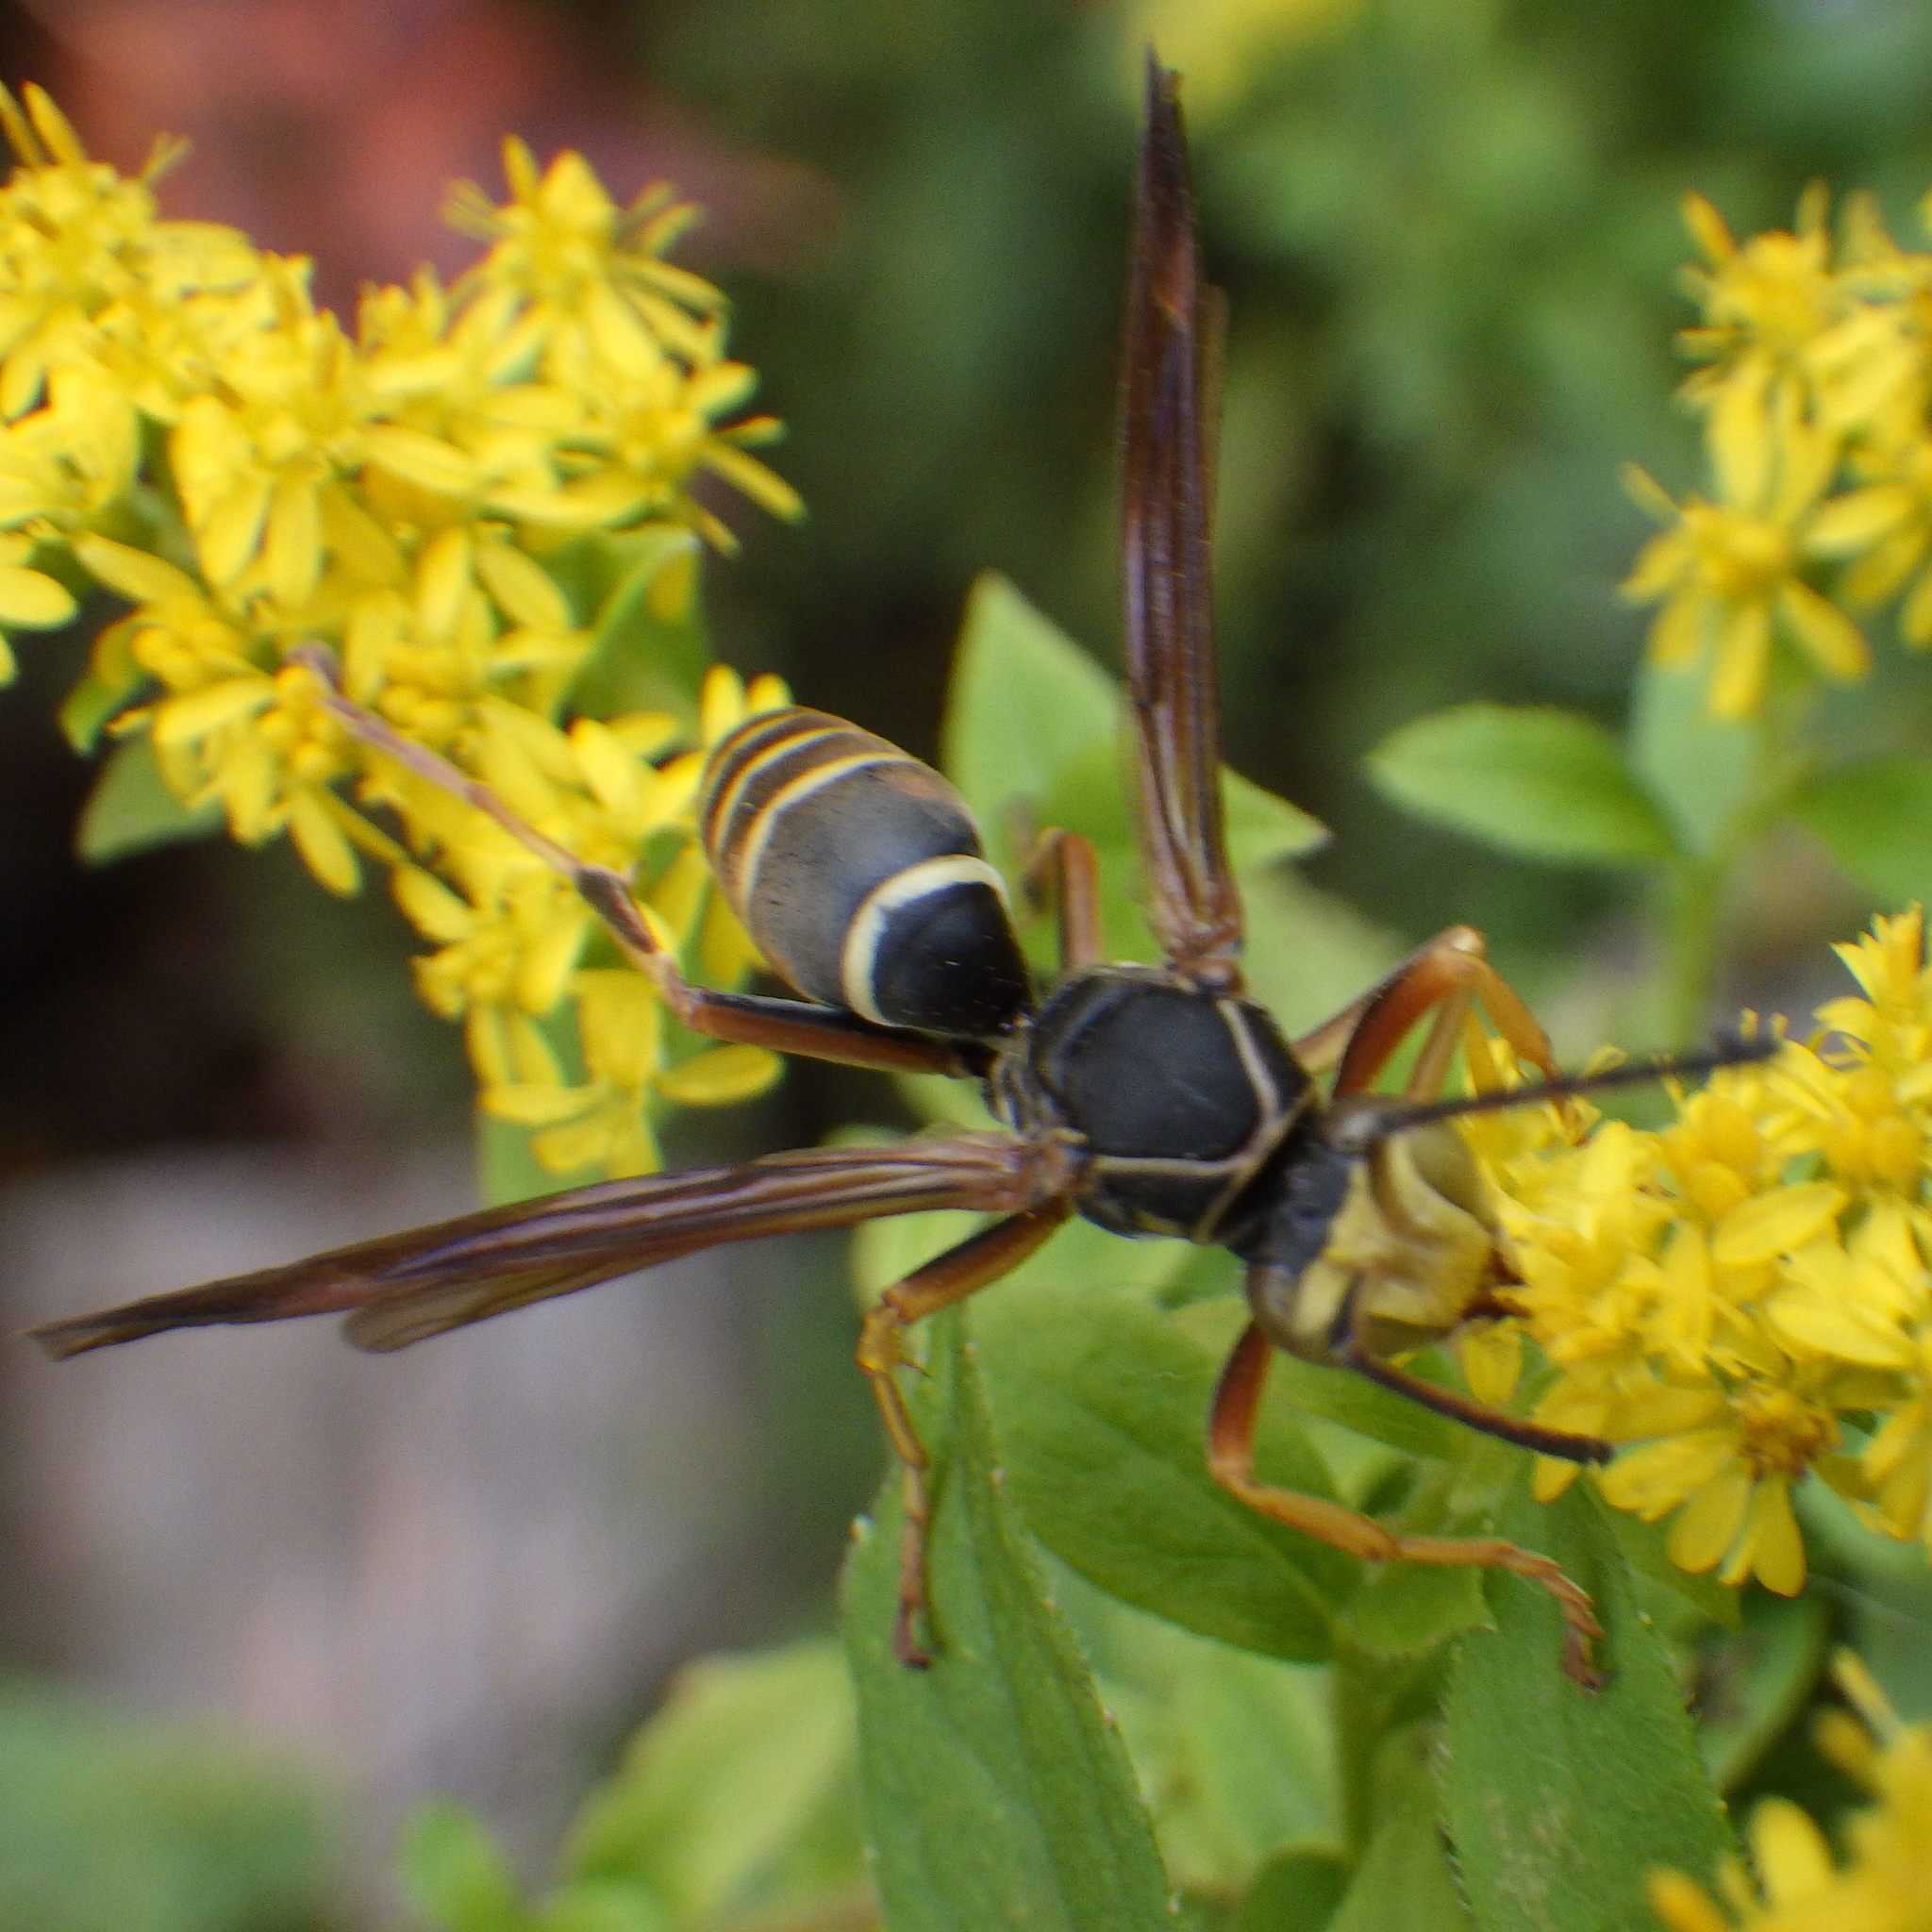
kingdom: Animalia
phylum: Arthropoda
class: Insecta
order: Hymenoptera
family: Eumenidae
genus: Polistes
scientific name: Polistes fuscatus
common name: Dark paper wasp
